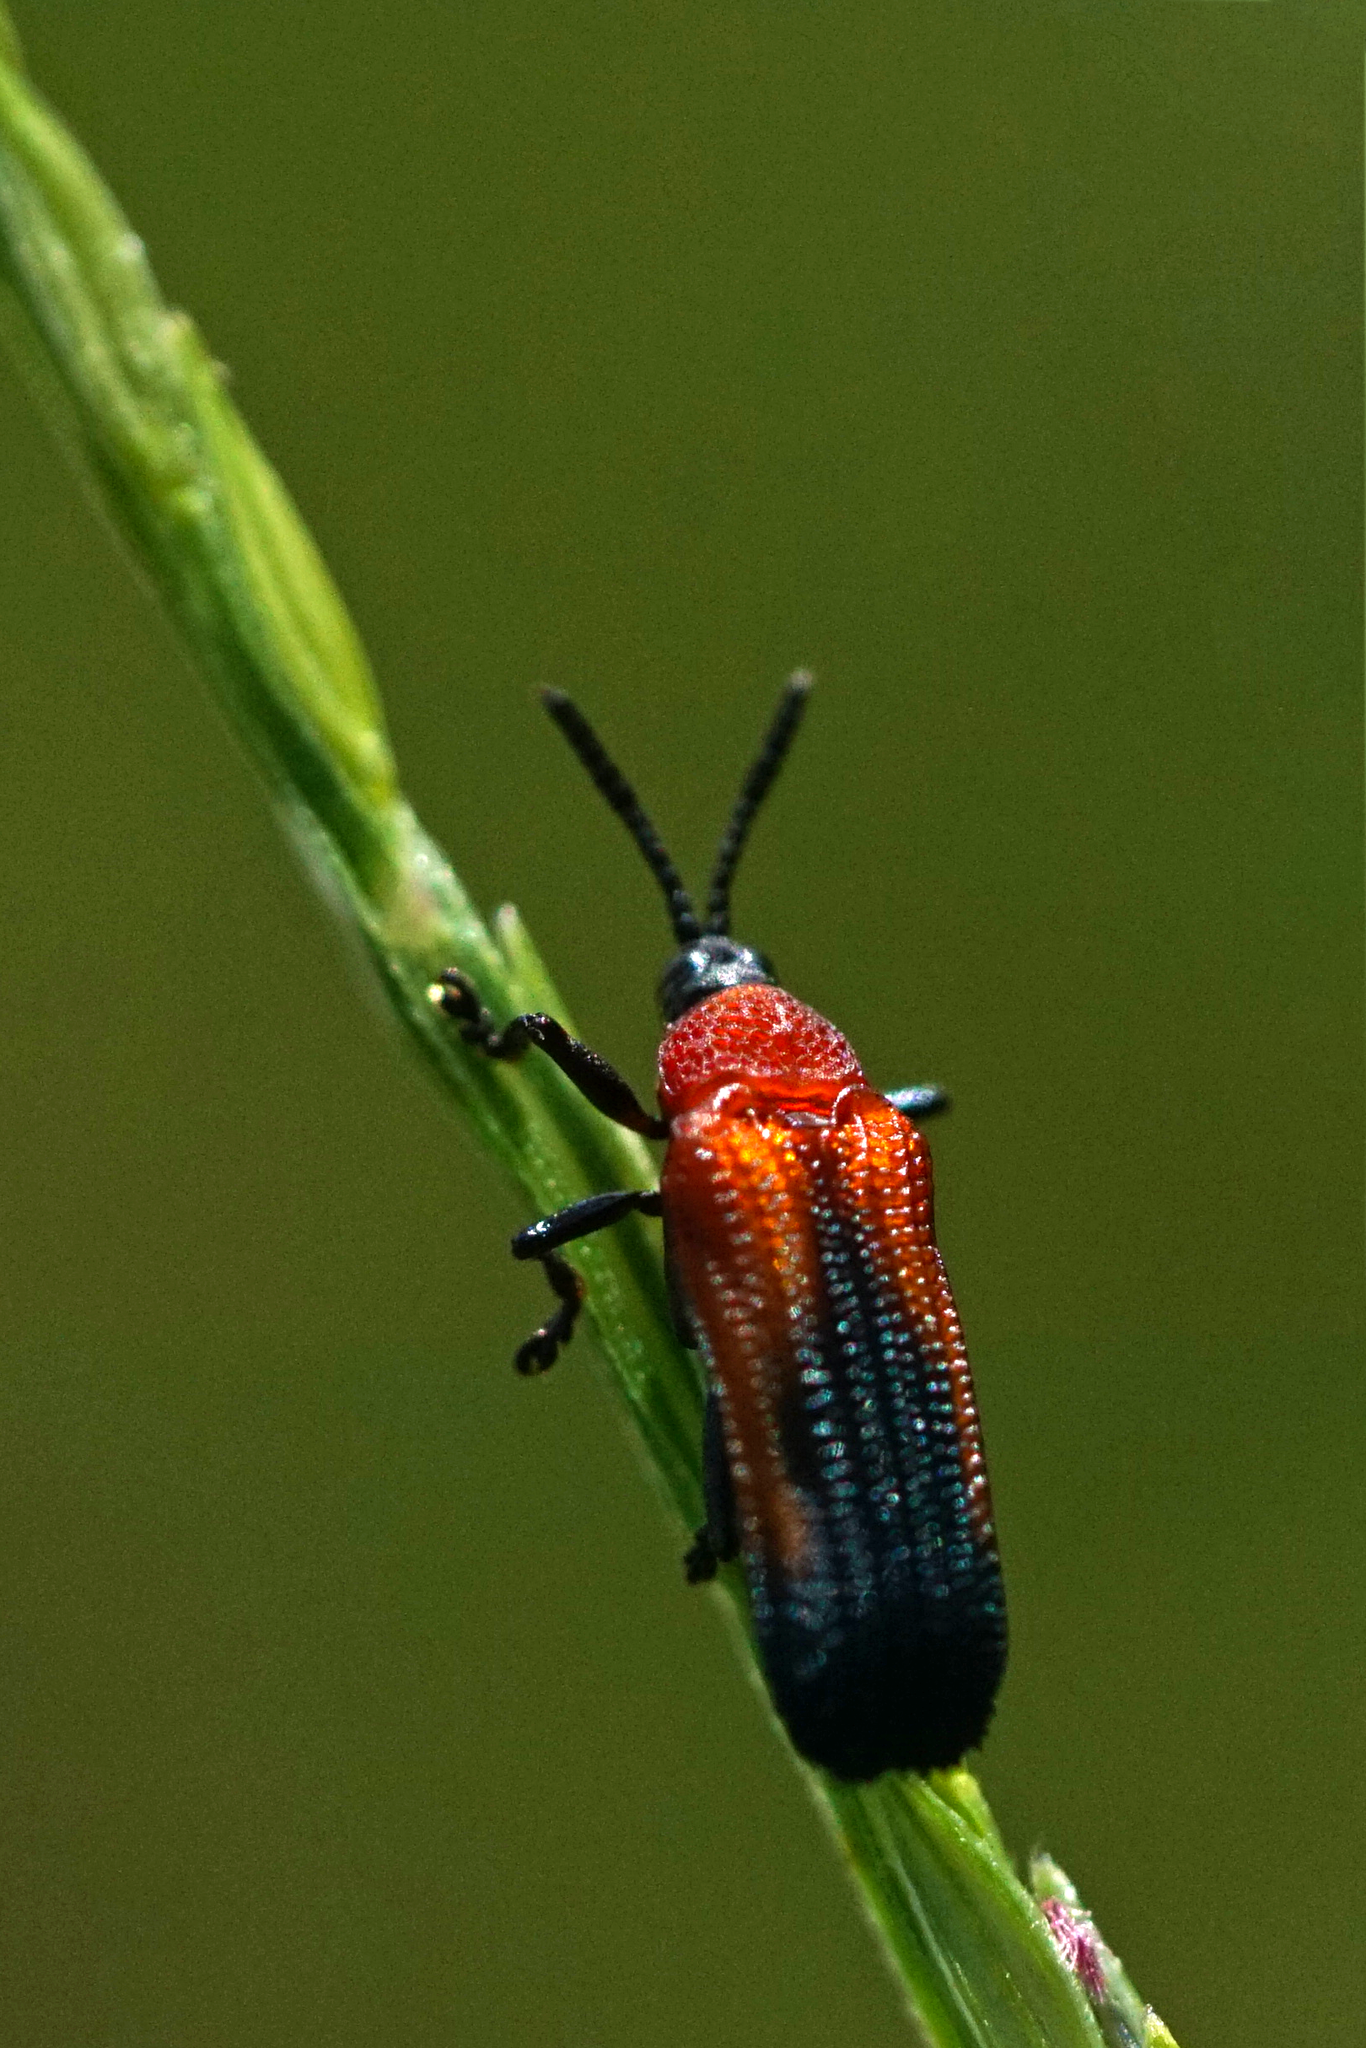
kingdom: Animalia
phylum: Arthropoda
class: Insecta
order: Coleoptera
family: Chrysomelidae
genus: Chalepus
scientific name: Chalepus sanguinicollis
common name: Red-shouldered leaf beetle
